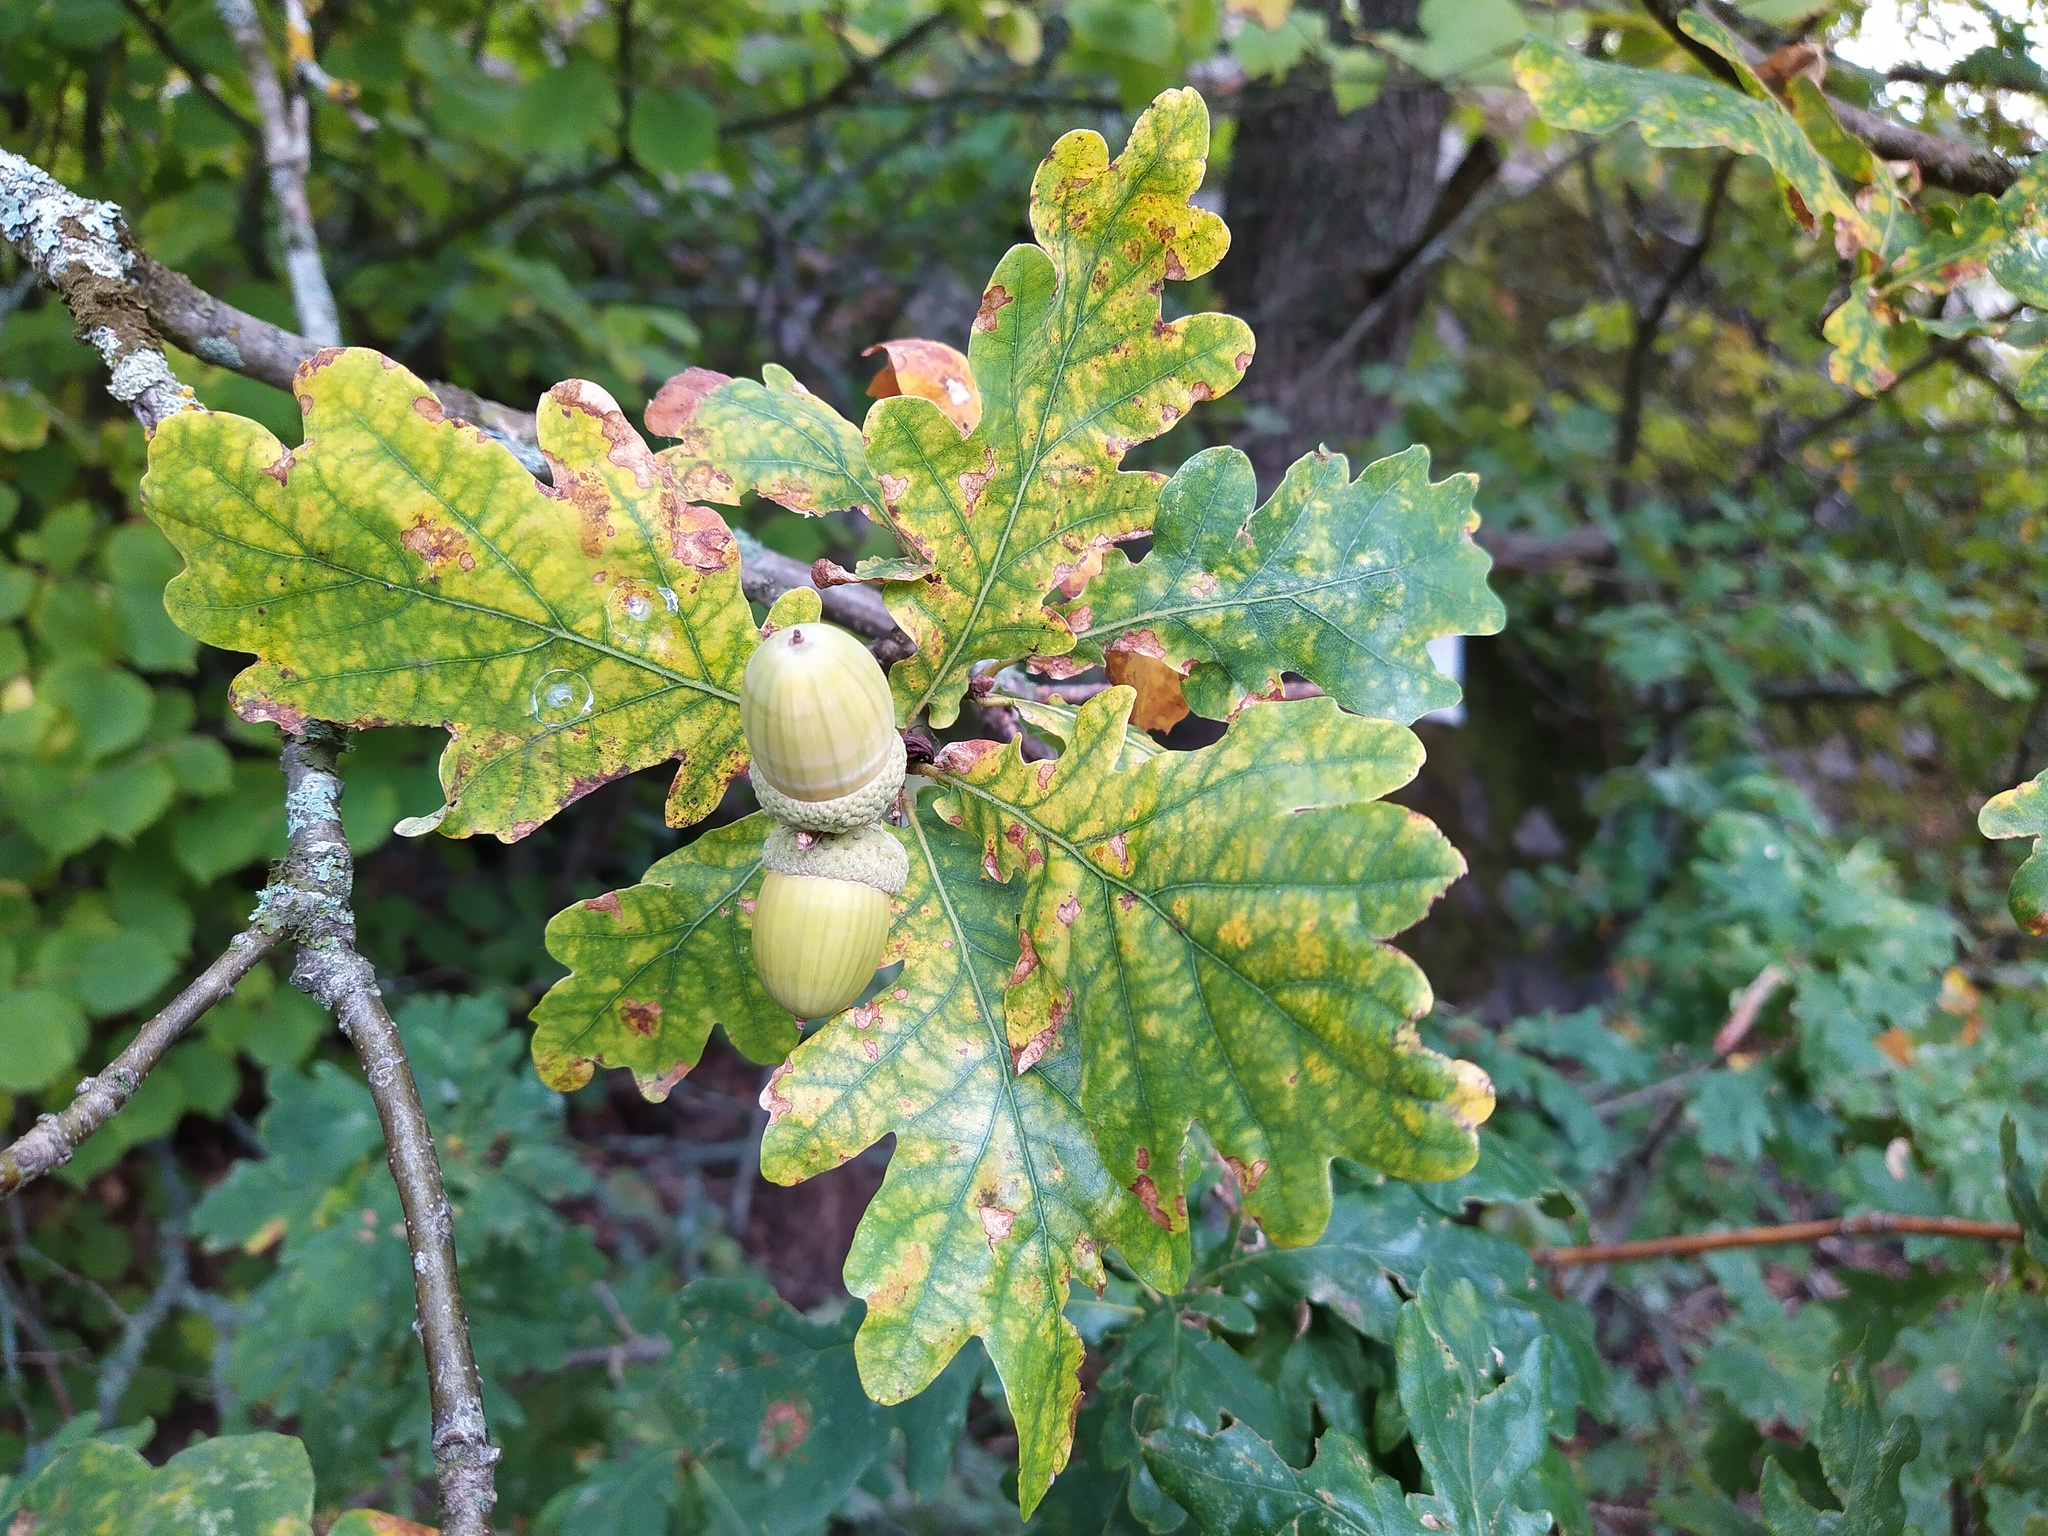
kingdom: Plantae
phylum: Tracheophyta
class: Magnoliopsida
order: Fagales
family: Fagaceae
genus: Quercus
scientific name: Quercus robur
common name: Pedunculate oak
